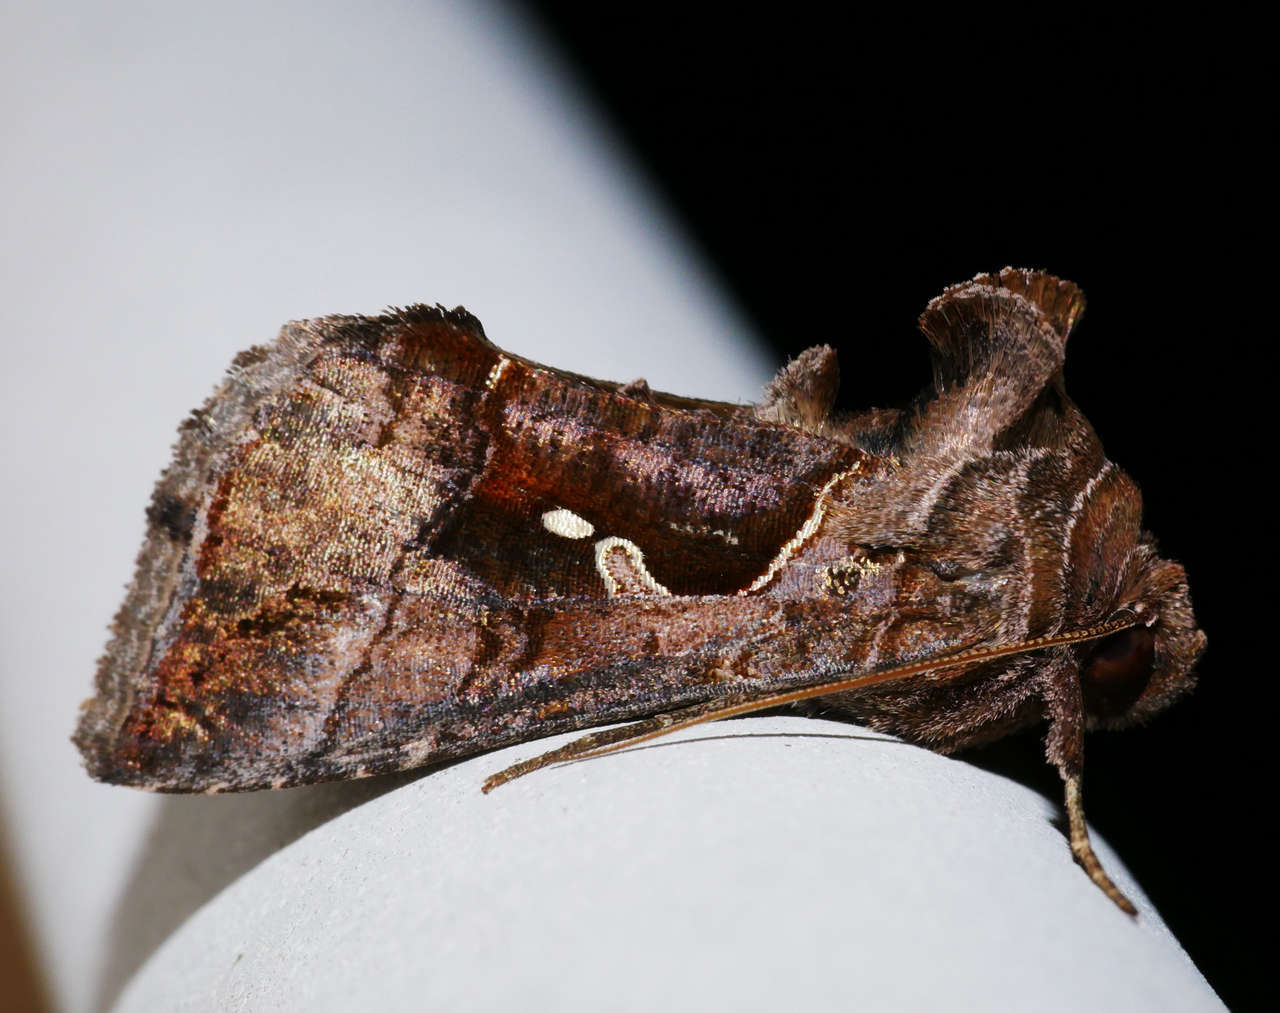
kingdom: Animalia
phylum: Arthropoda
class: Insecta
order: Lepidoptera
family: Noctuidae
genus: Chrysodeixis
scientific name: Chrysodeixis eriosoma
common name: Green garden looper
